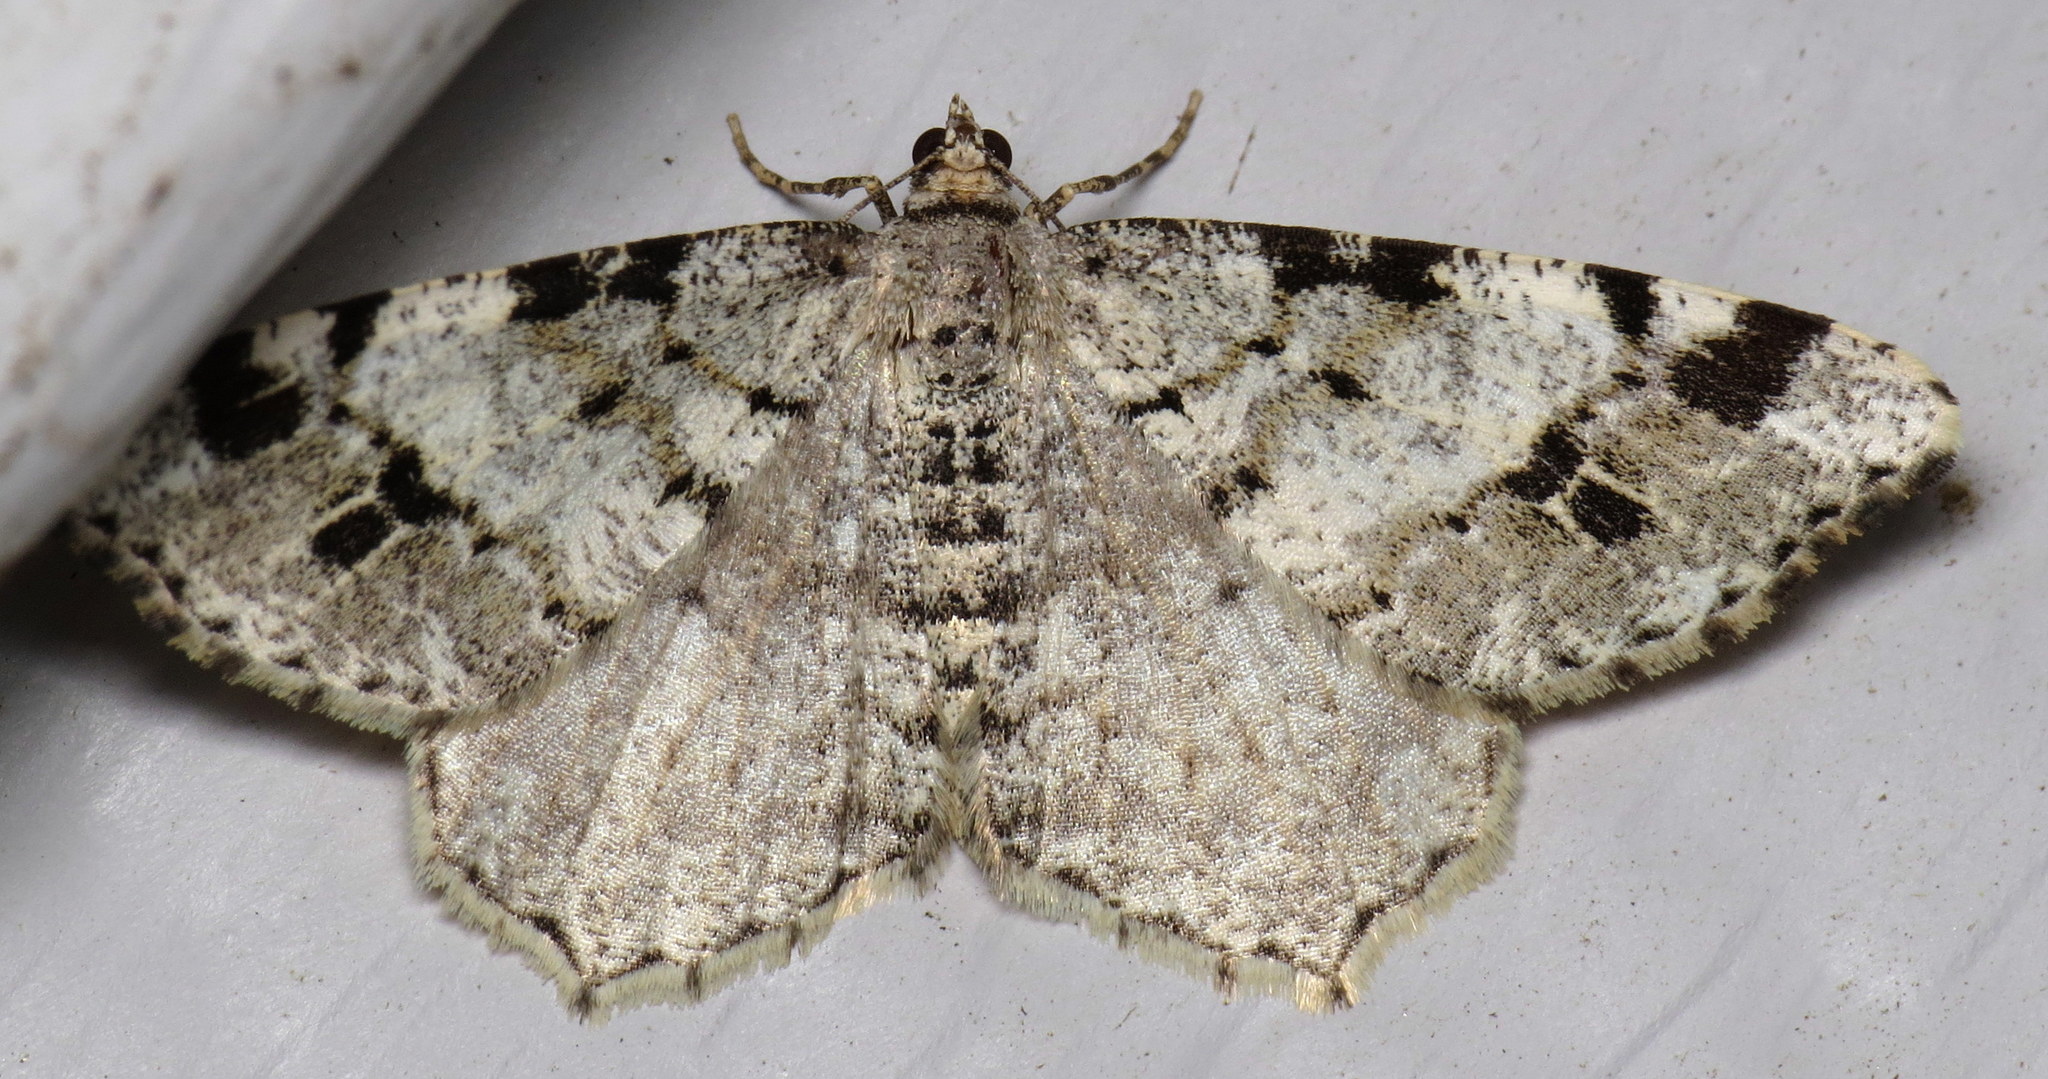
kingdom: Animalia
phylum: Arthropoda
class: Insecta
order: Lepidoptera
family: Geometridae
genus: Macaria
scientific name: Macaria pinistrobata
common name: White pine angle
